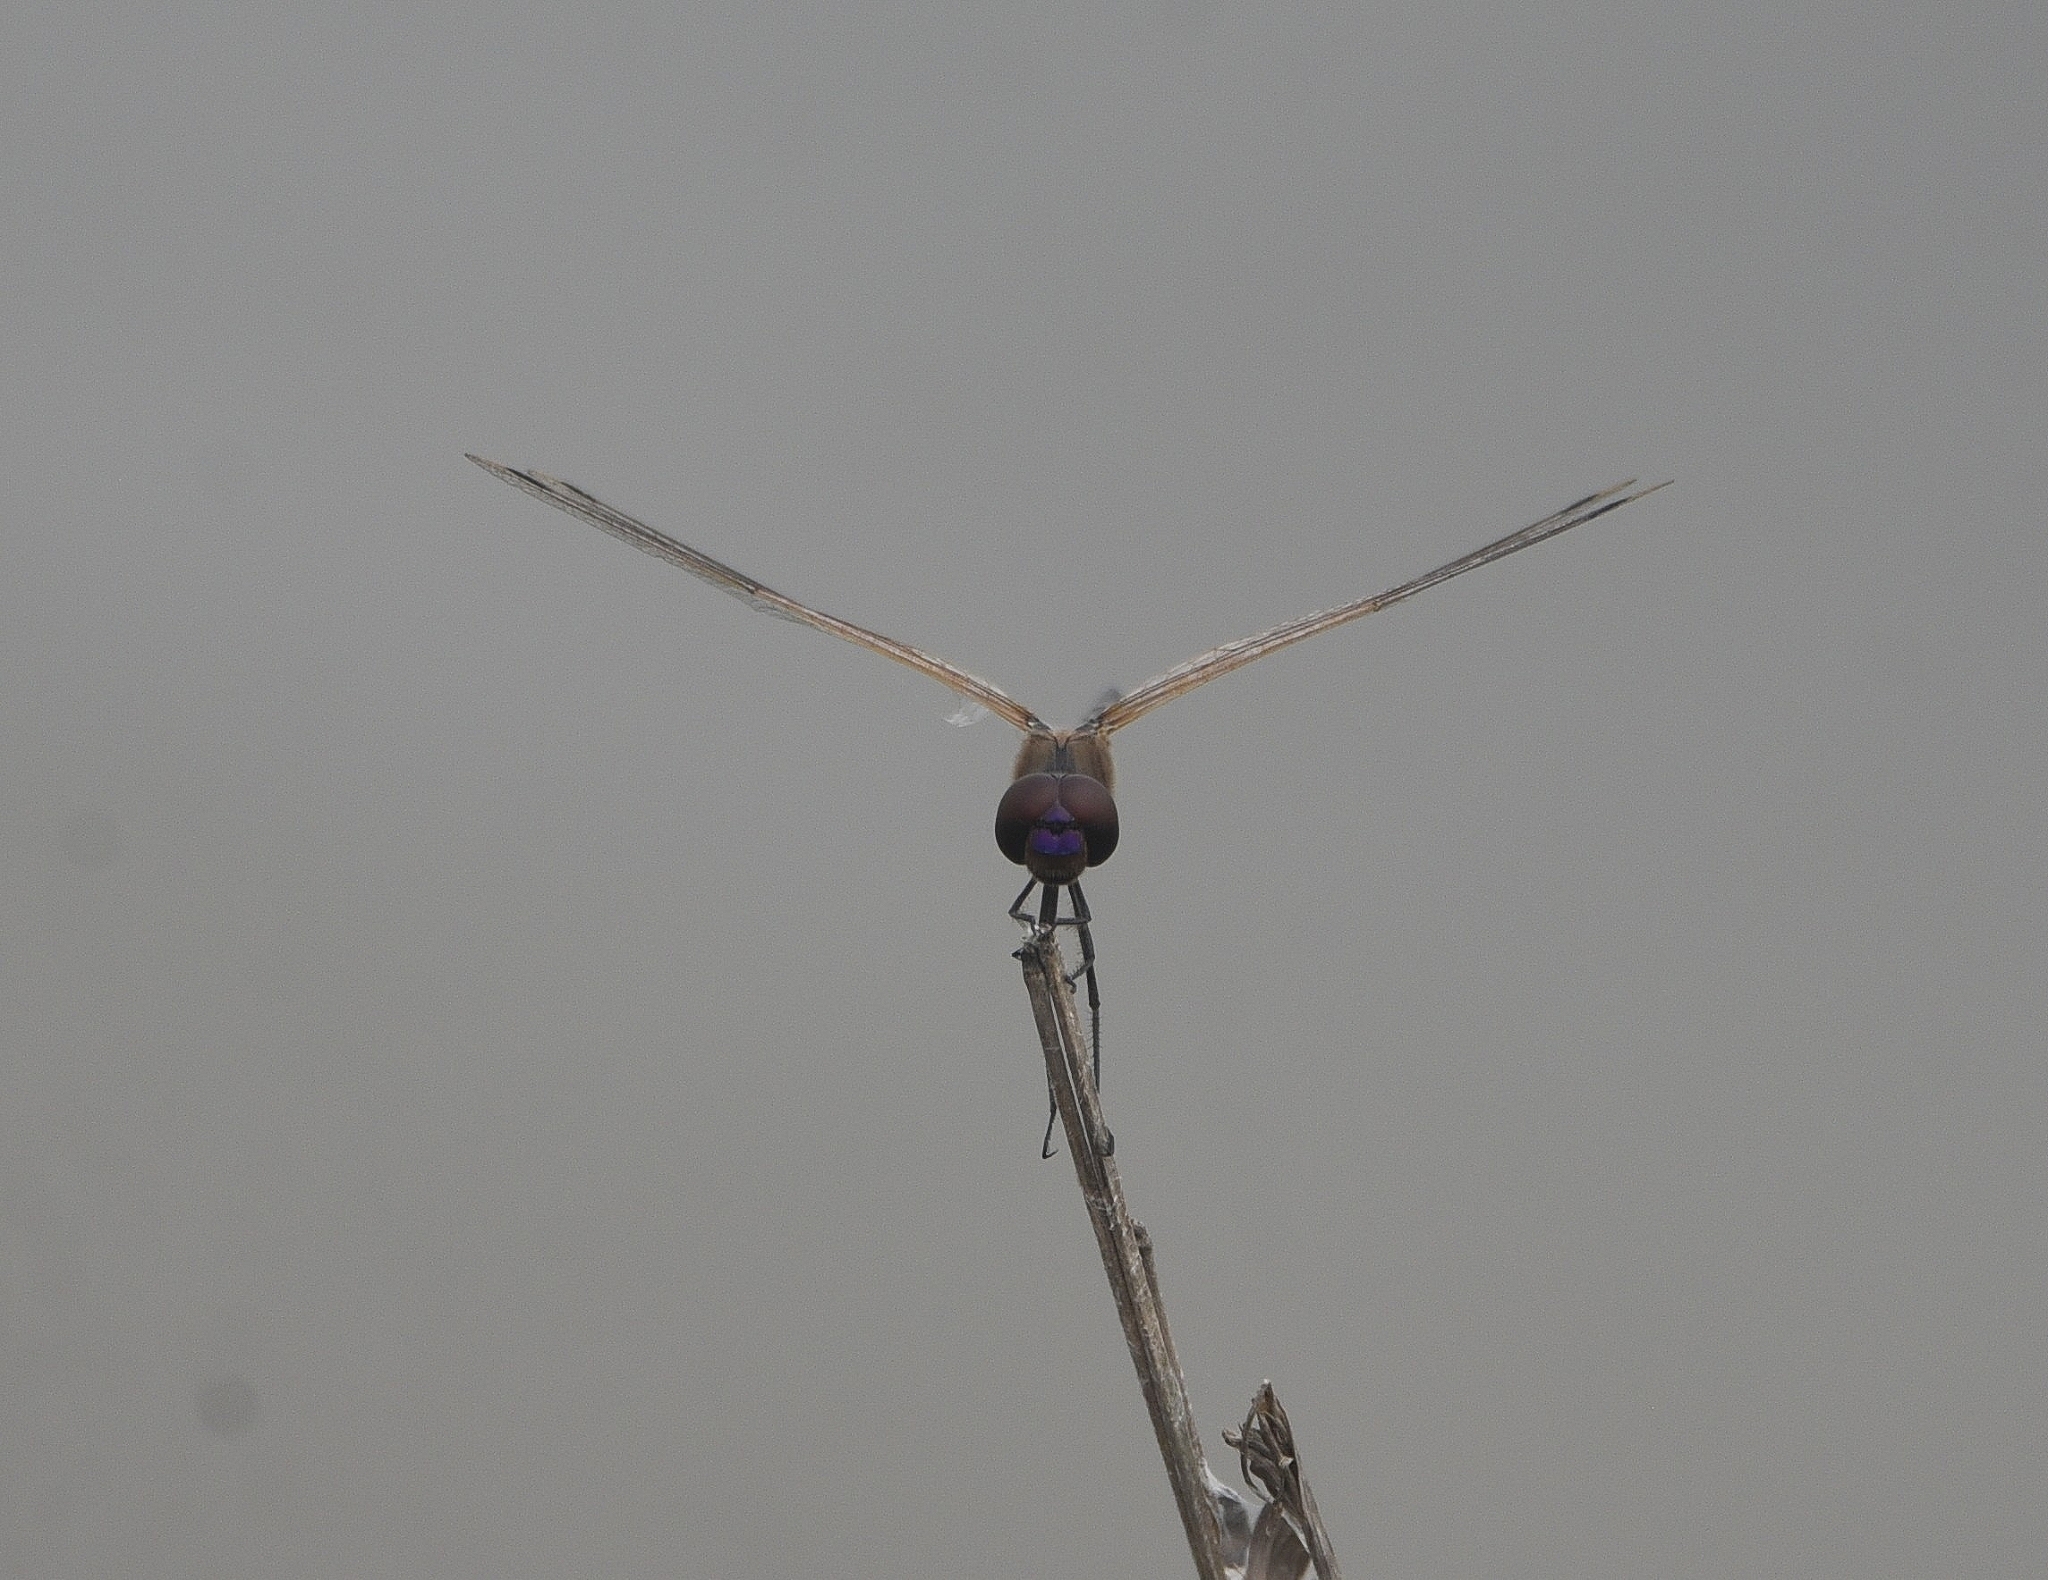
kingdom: Animalia
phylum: Arthropoda
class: Insecta
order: Odonata
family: Libellulidae
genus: Trithemis
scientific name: Trithemis pallidinervis
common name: Dancing dropwing
